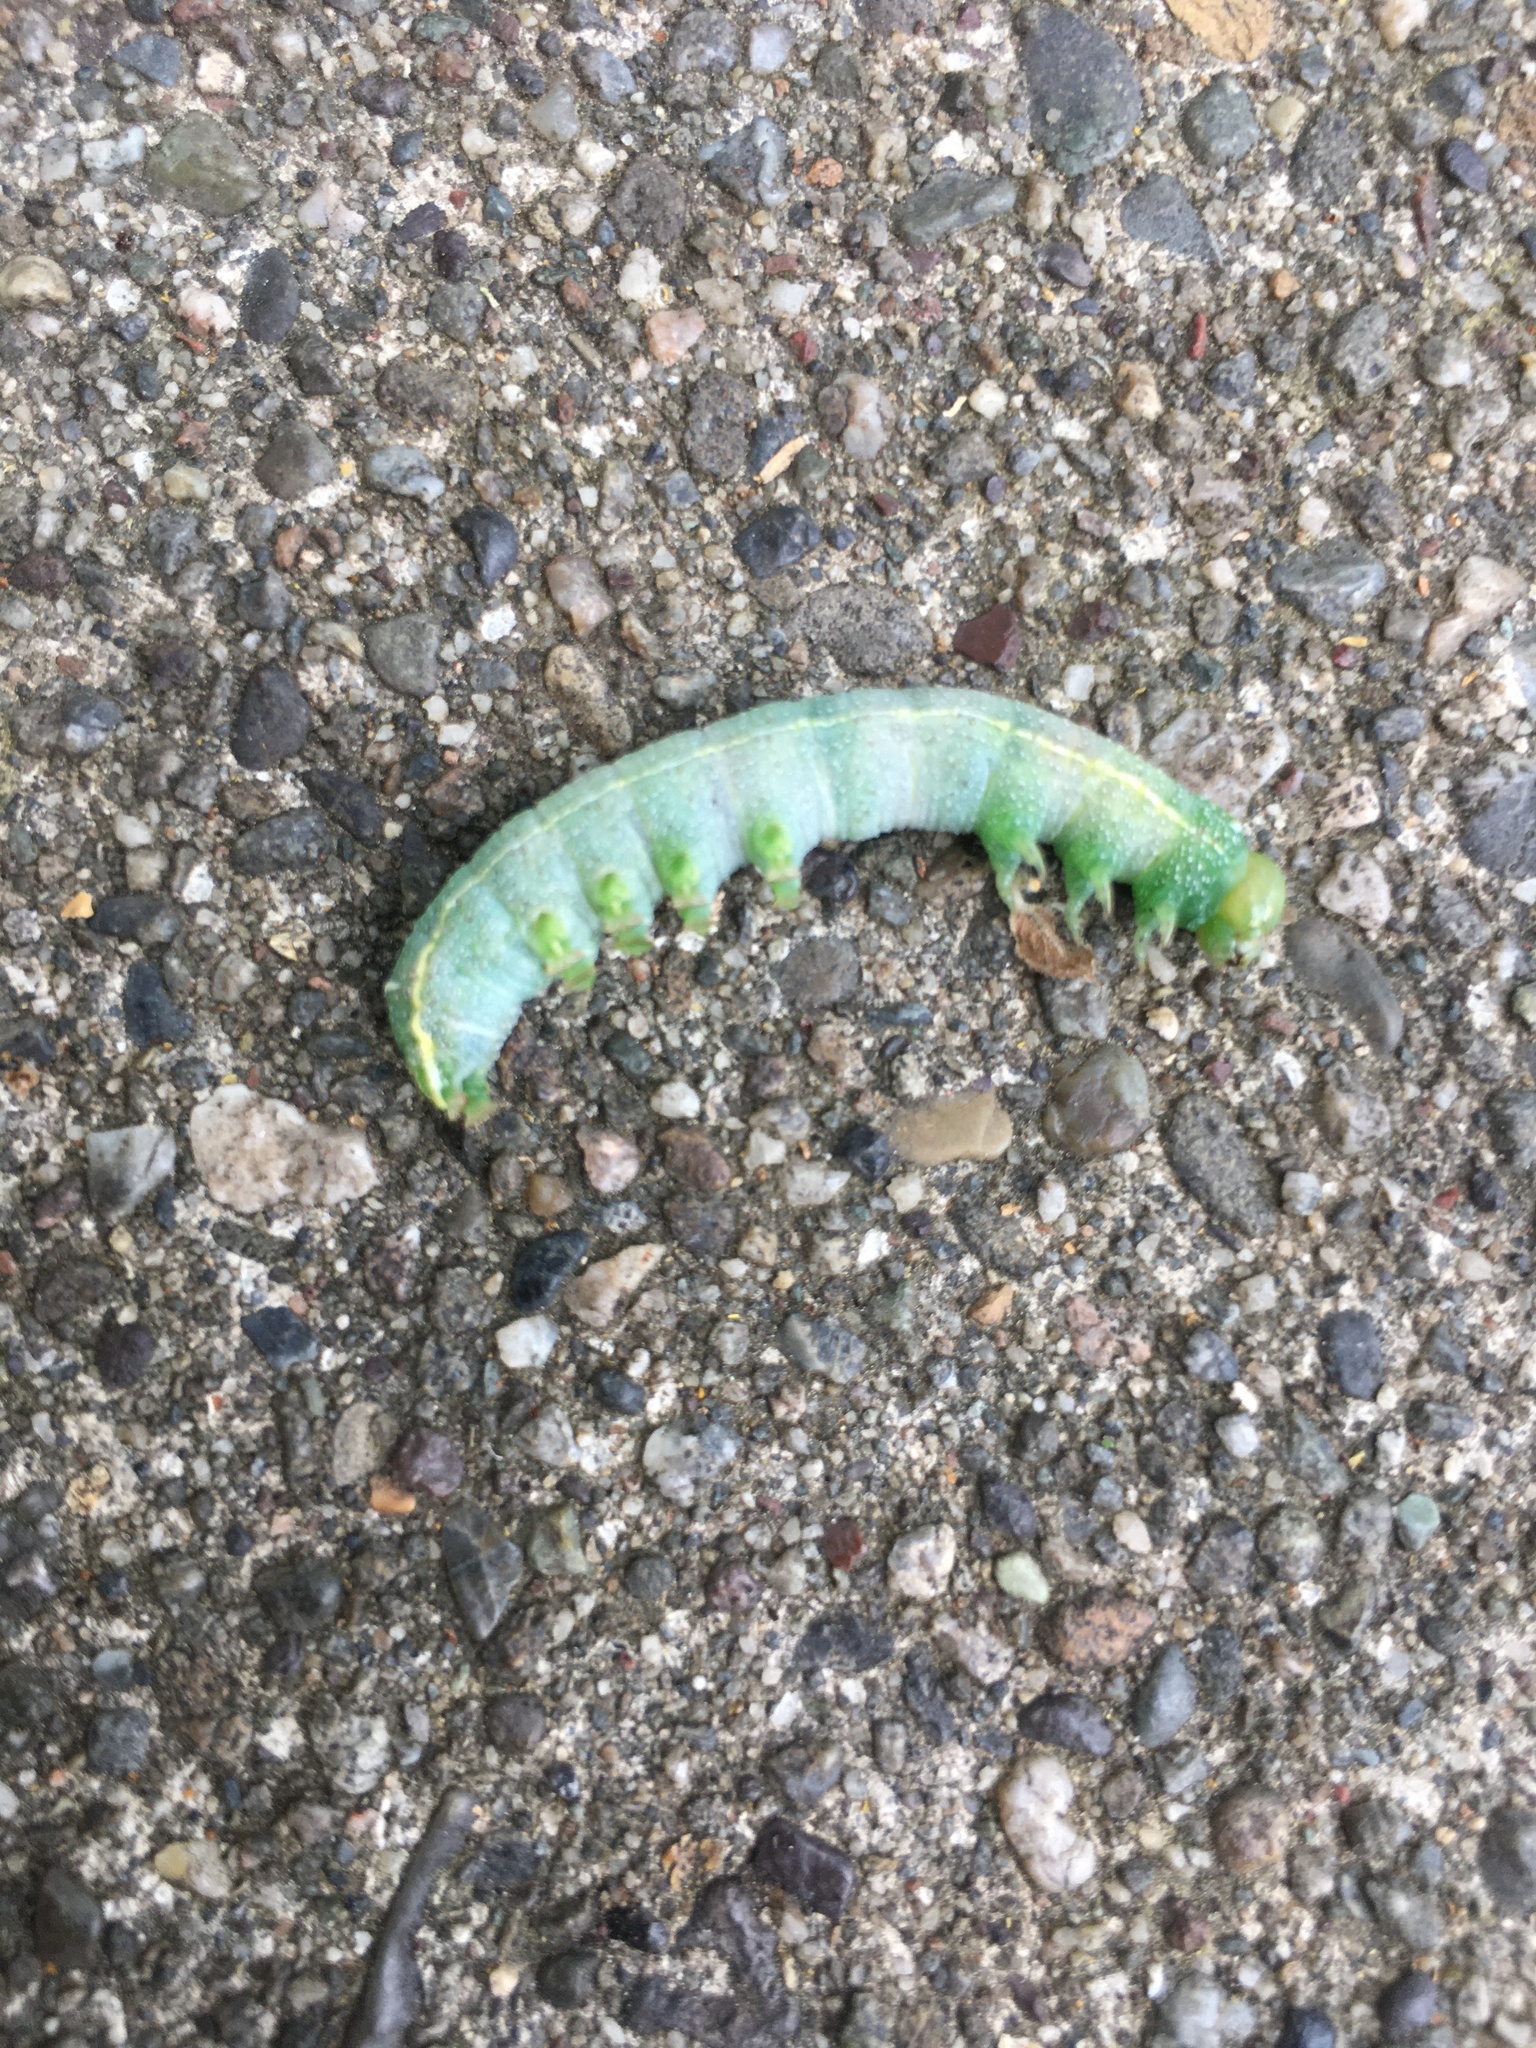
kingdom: Animalia
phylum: Arthropoda
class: Insecta
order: Lepidoptera
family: Notodontidae
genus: Nadata
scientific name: Nadata gibbosa
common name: White-dotted prominent
